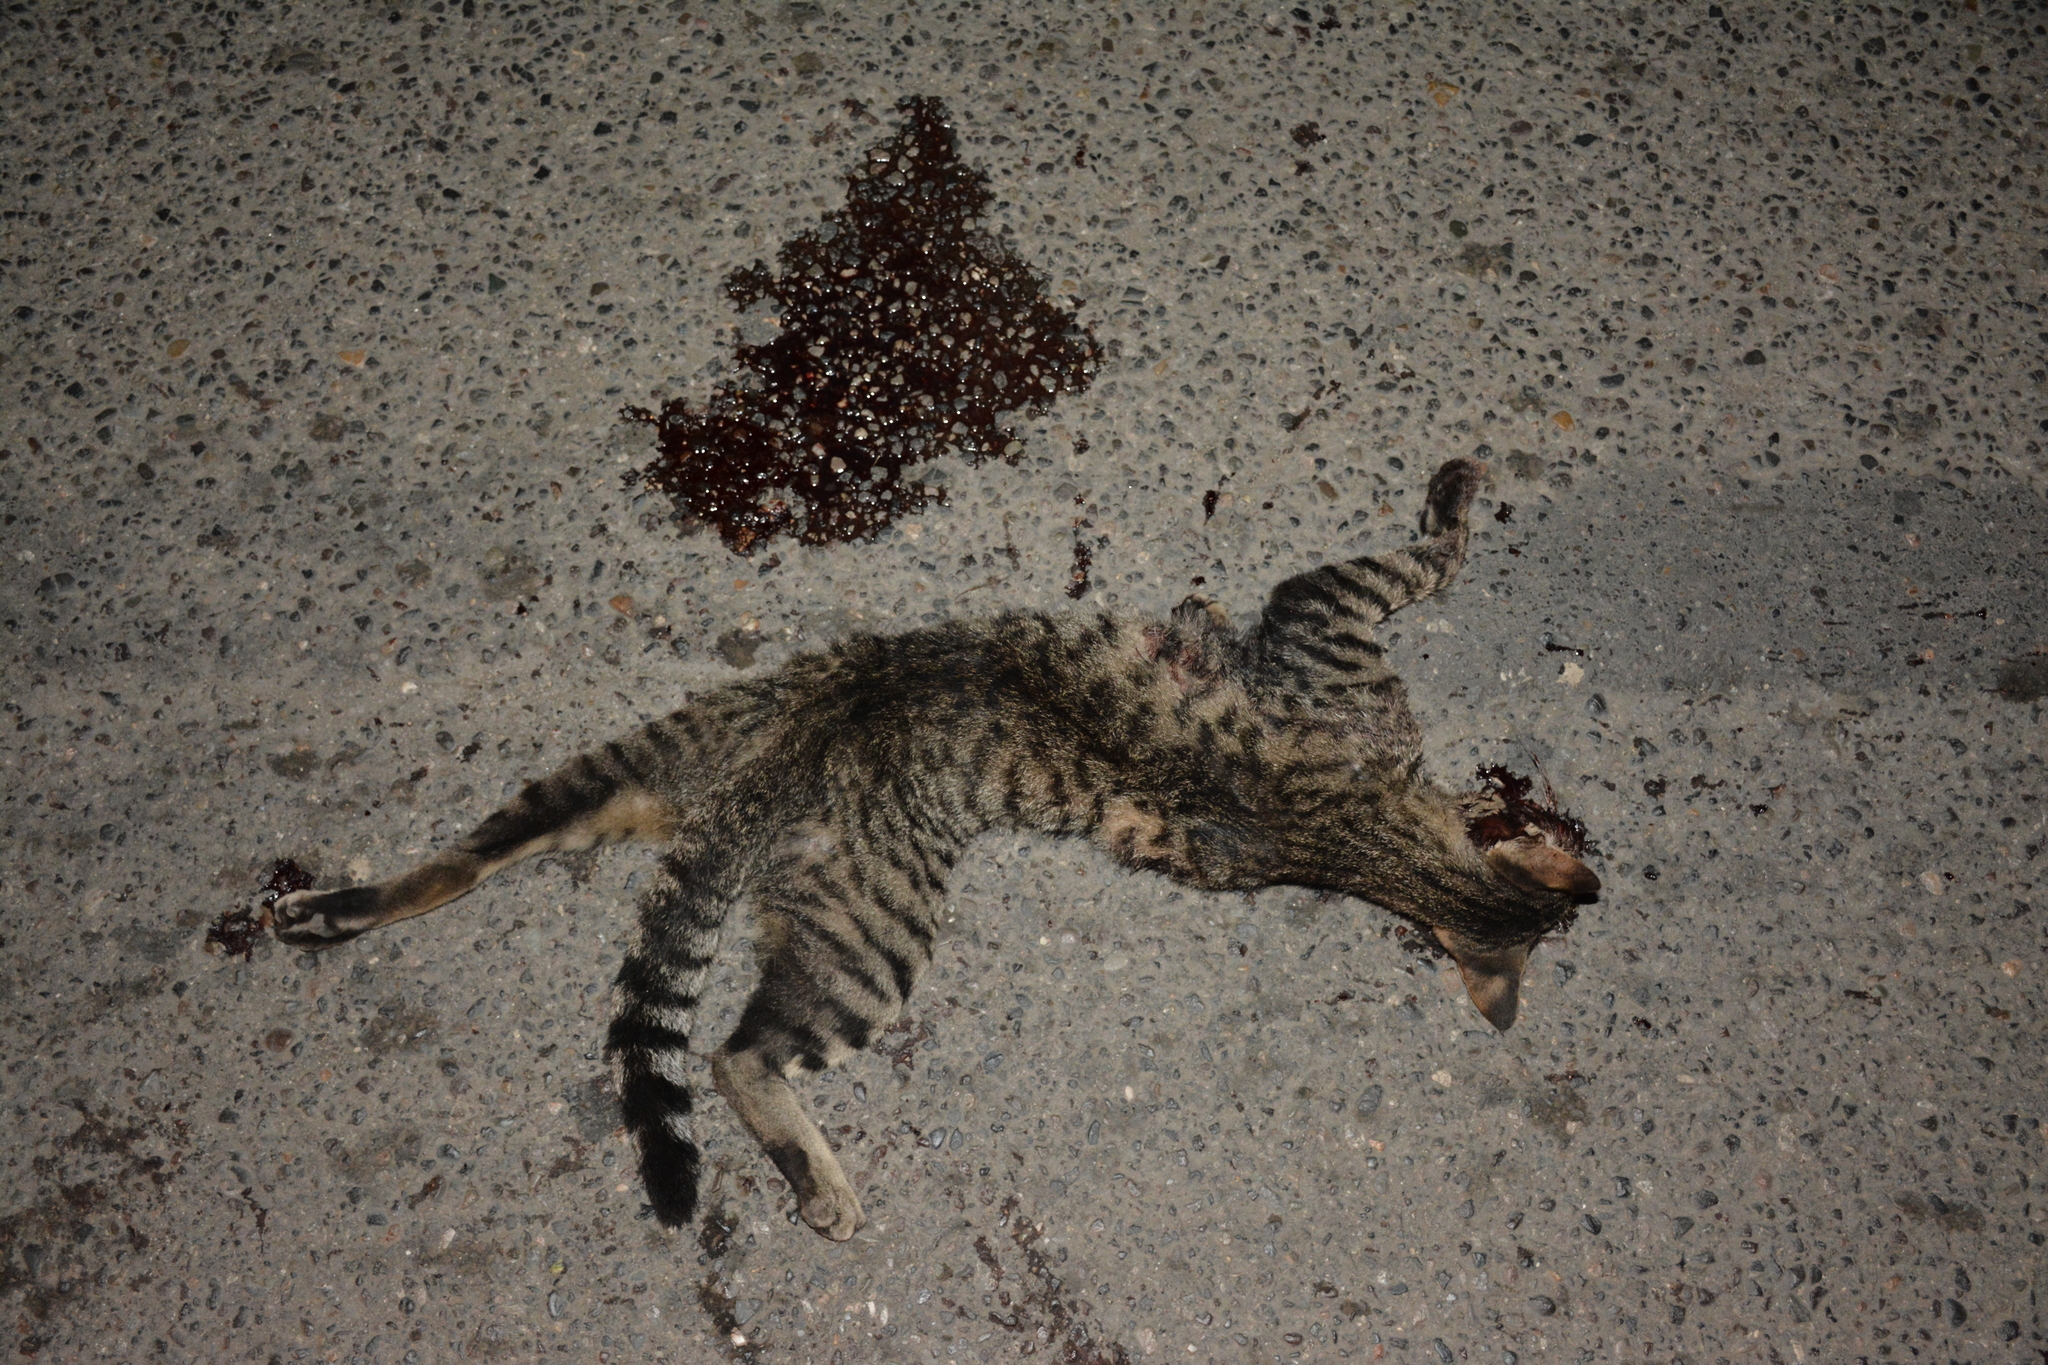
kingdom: Animalia
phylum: Chordata
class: Mammalia
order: Carnivora
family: Felidae
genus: Felis
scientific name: Felis catus
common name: Domestic cat
